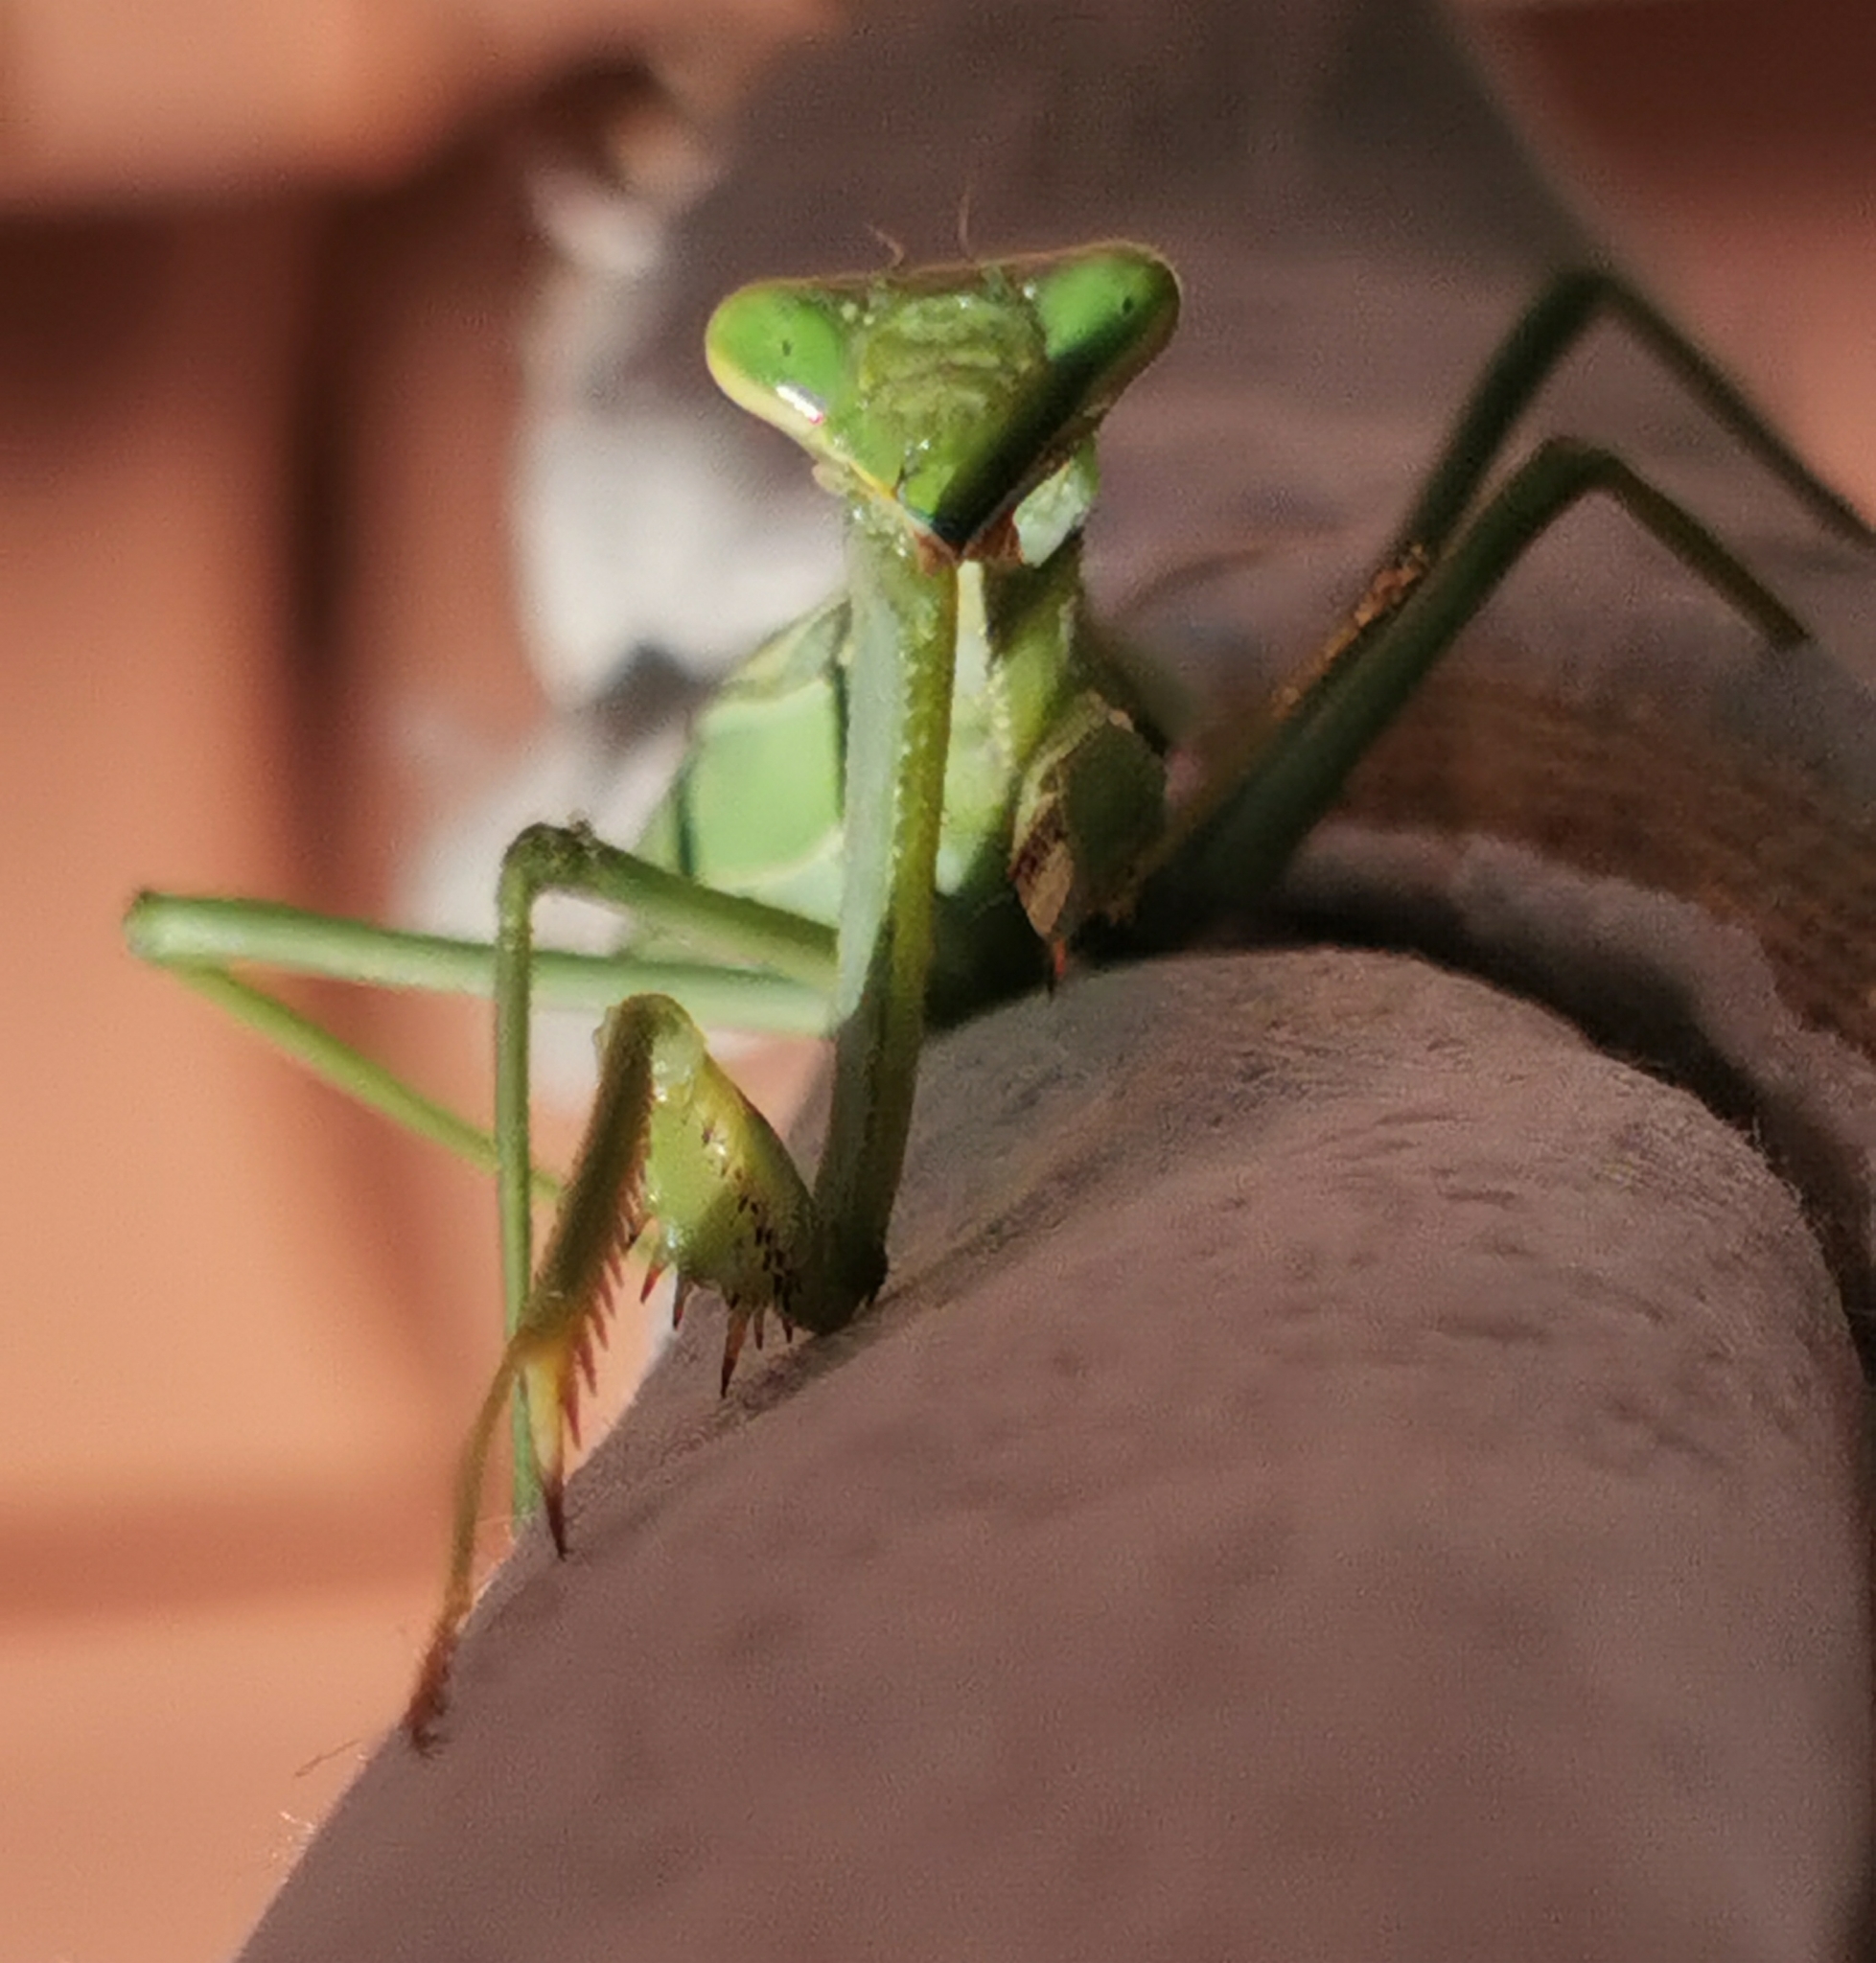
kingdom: Animalia
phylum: Arthropoda
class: Insecta
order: Mantodea
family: Mantidae
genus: Stagmomantis
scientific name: Stagmomantis limbata
